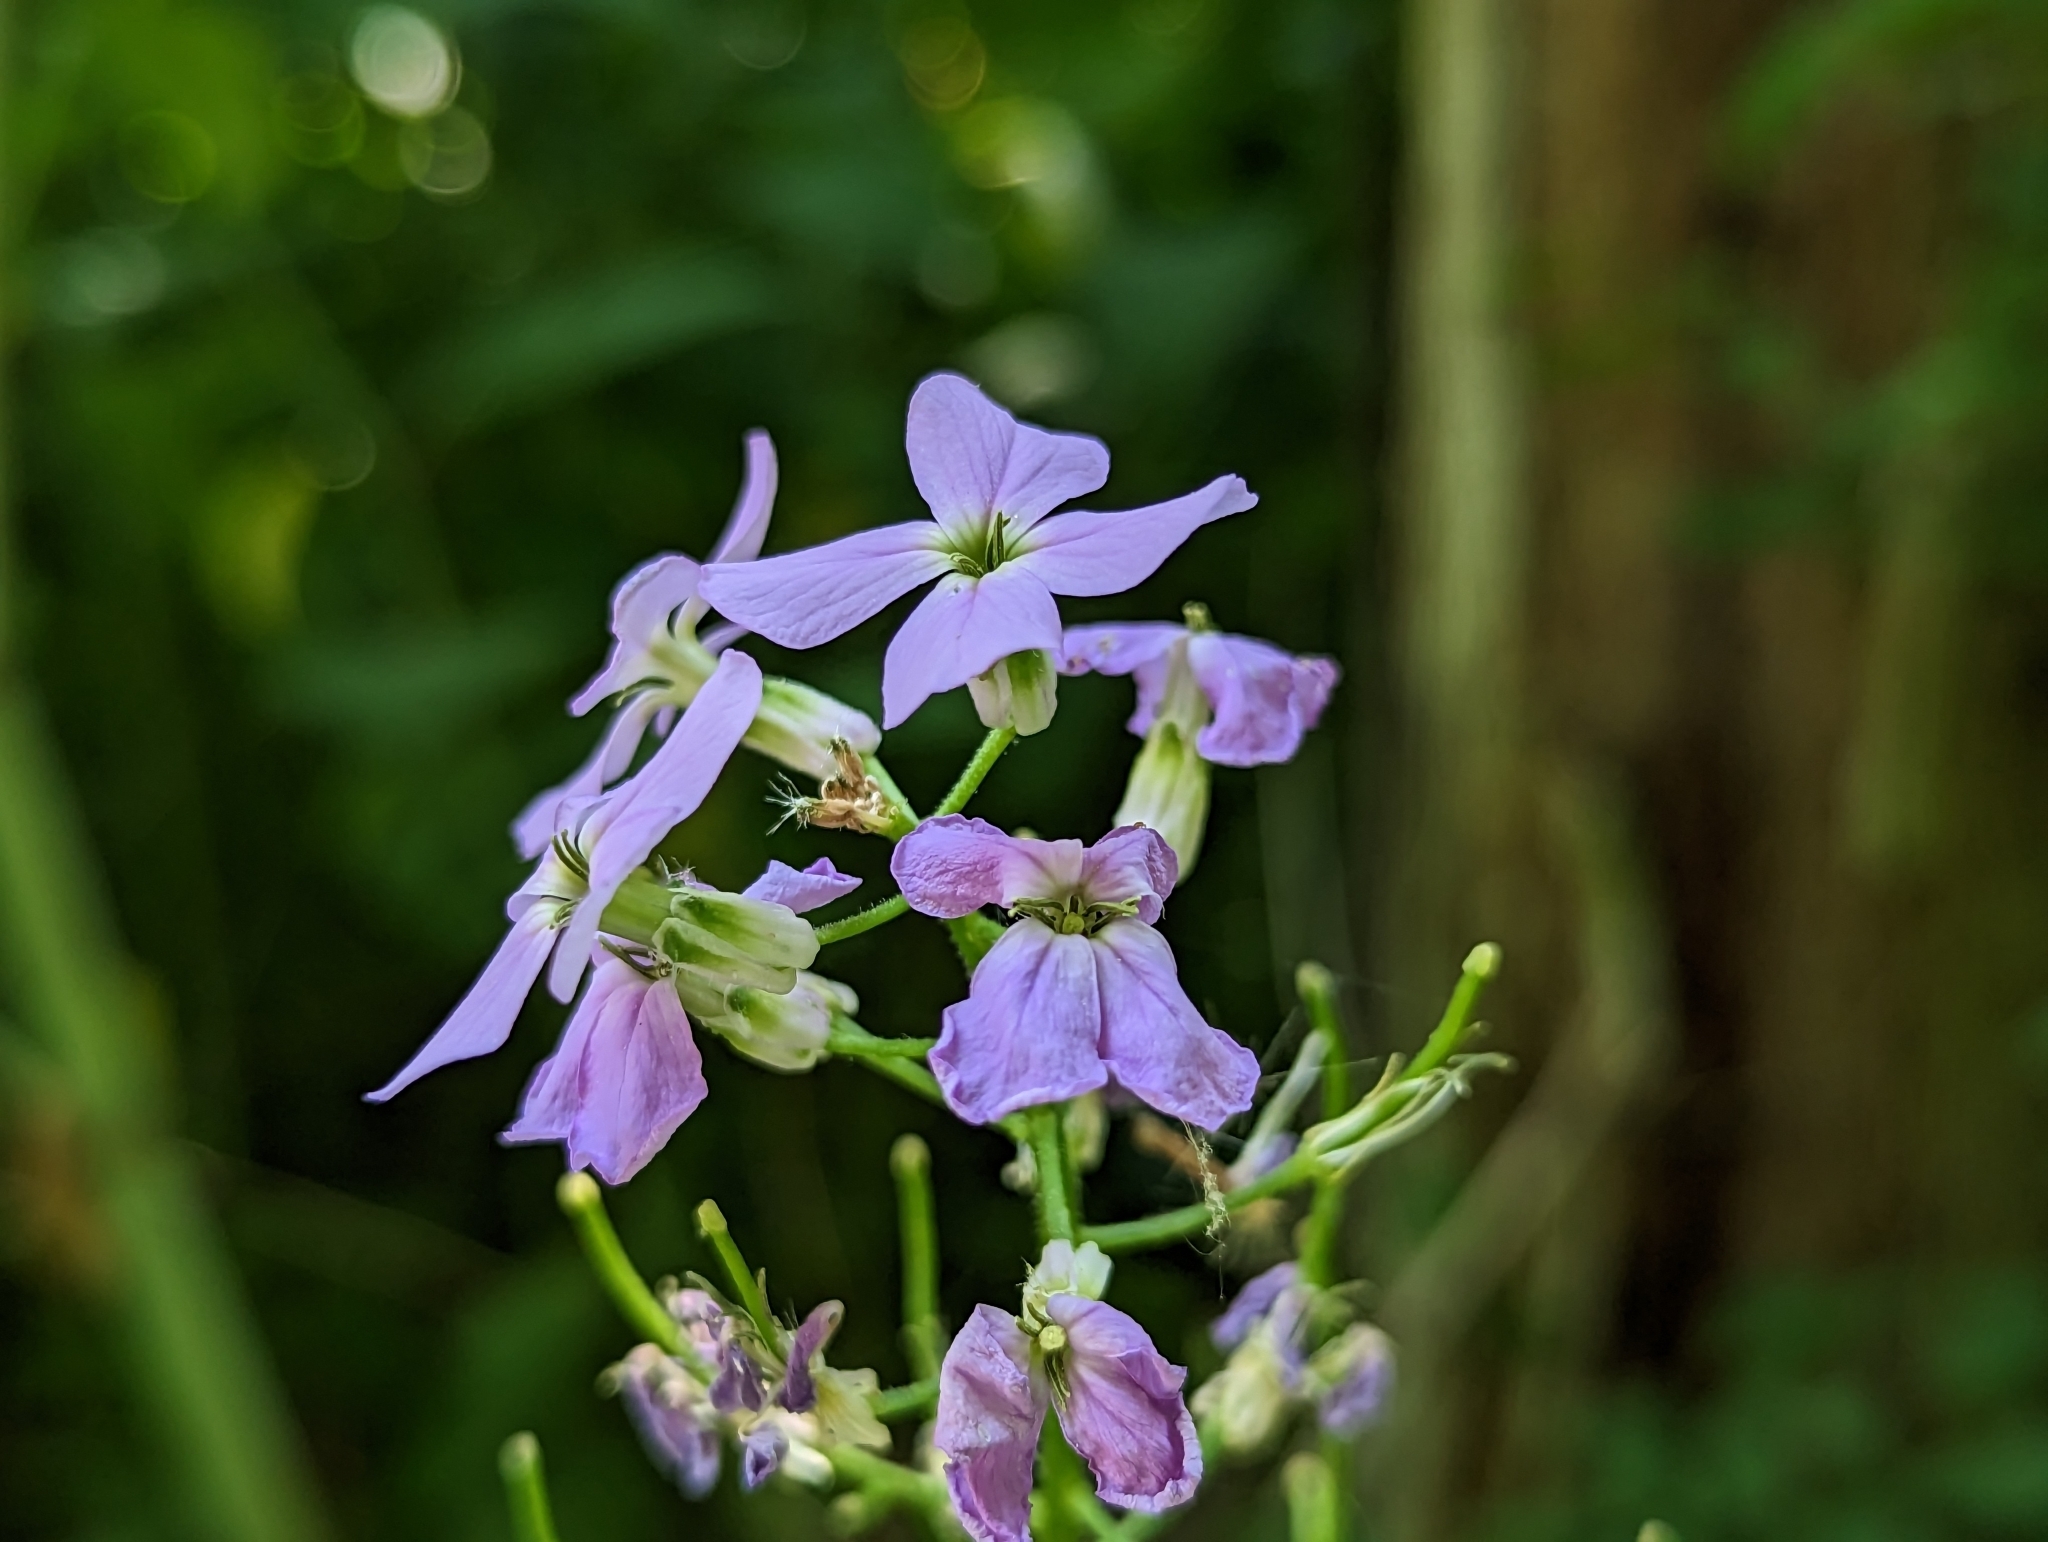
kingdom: Plantae
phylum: Tracheophyta
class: Magnoliopsida
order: Brassicales
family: Brassicaceae
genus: Hesperis
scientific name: Hesperis matronalis
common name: Dame's-violet
